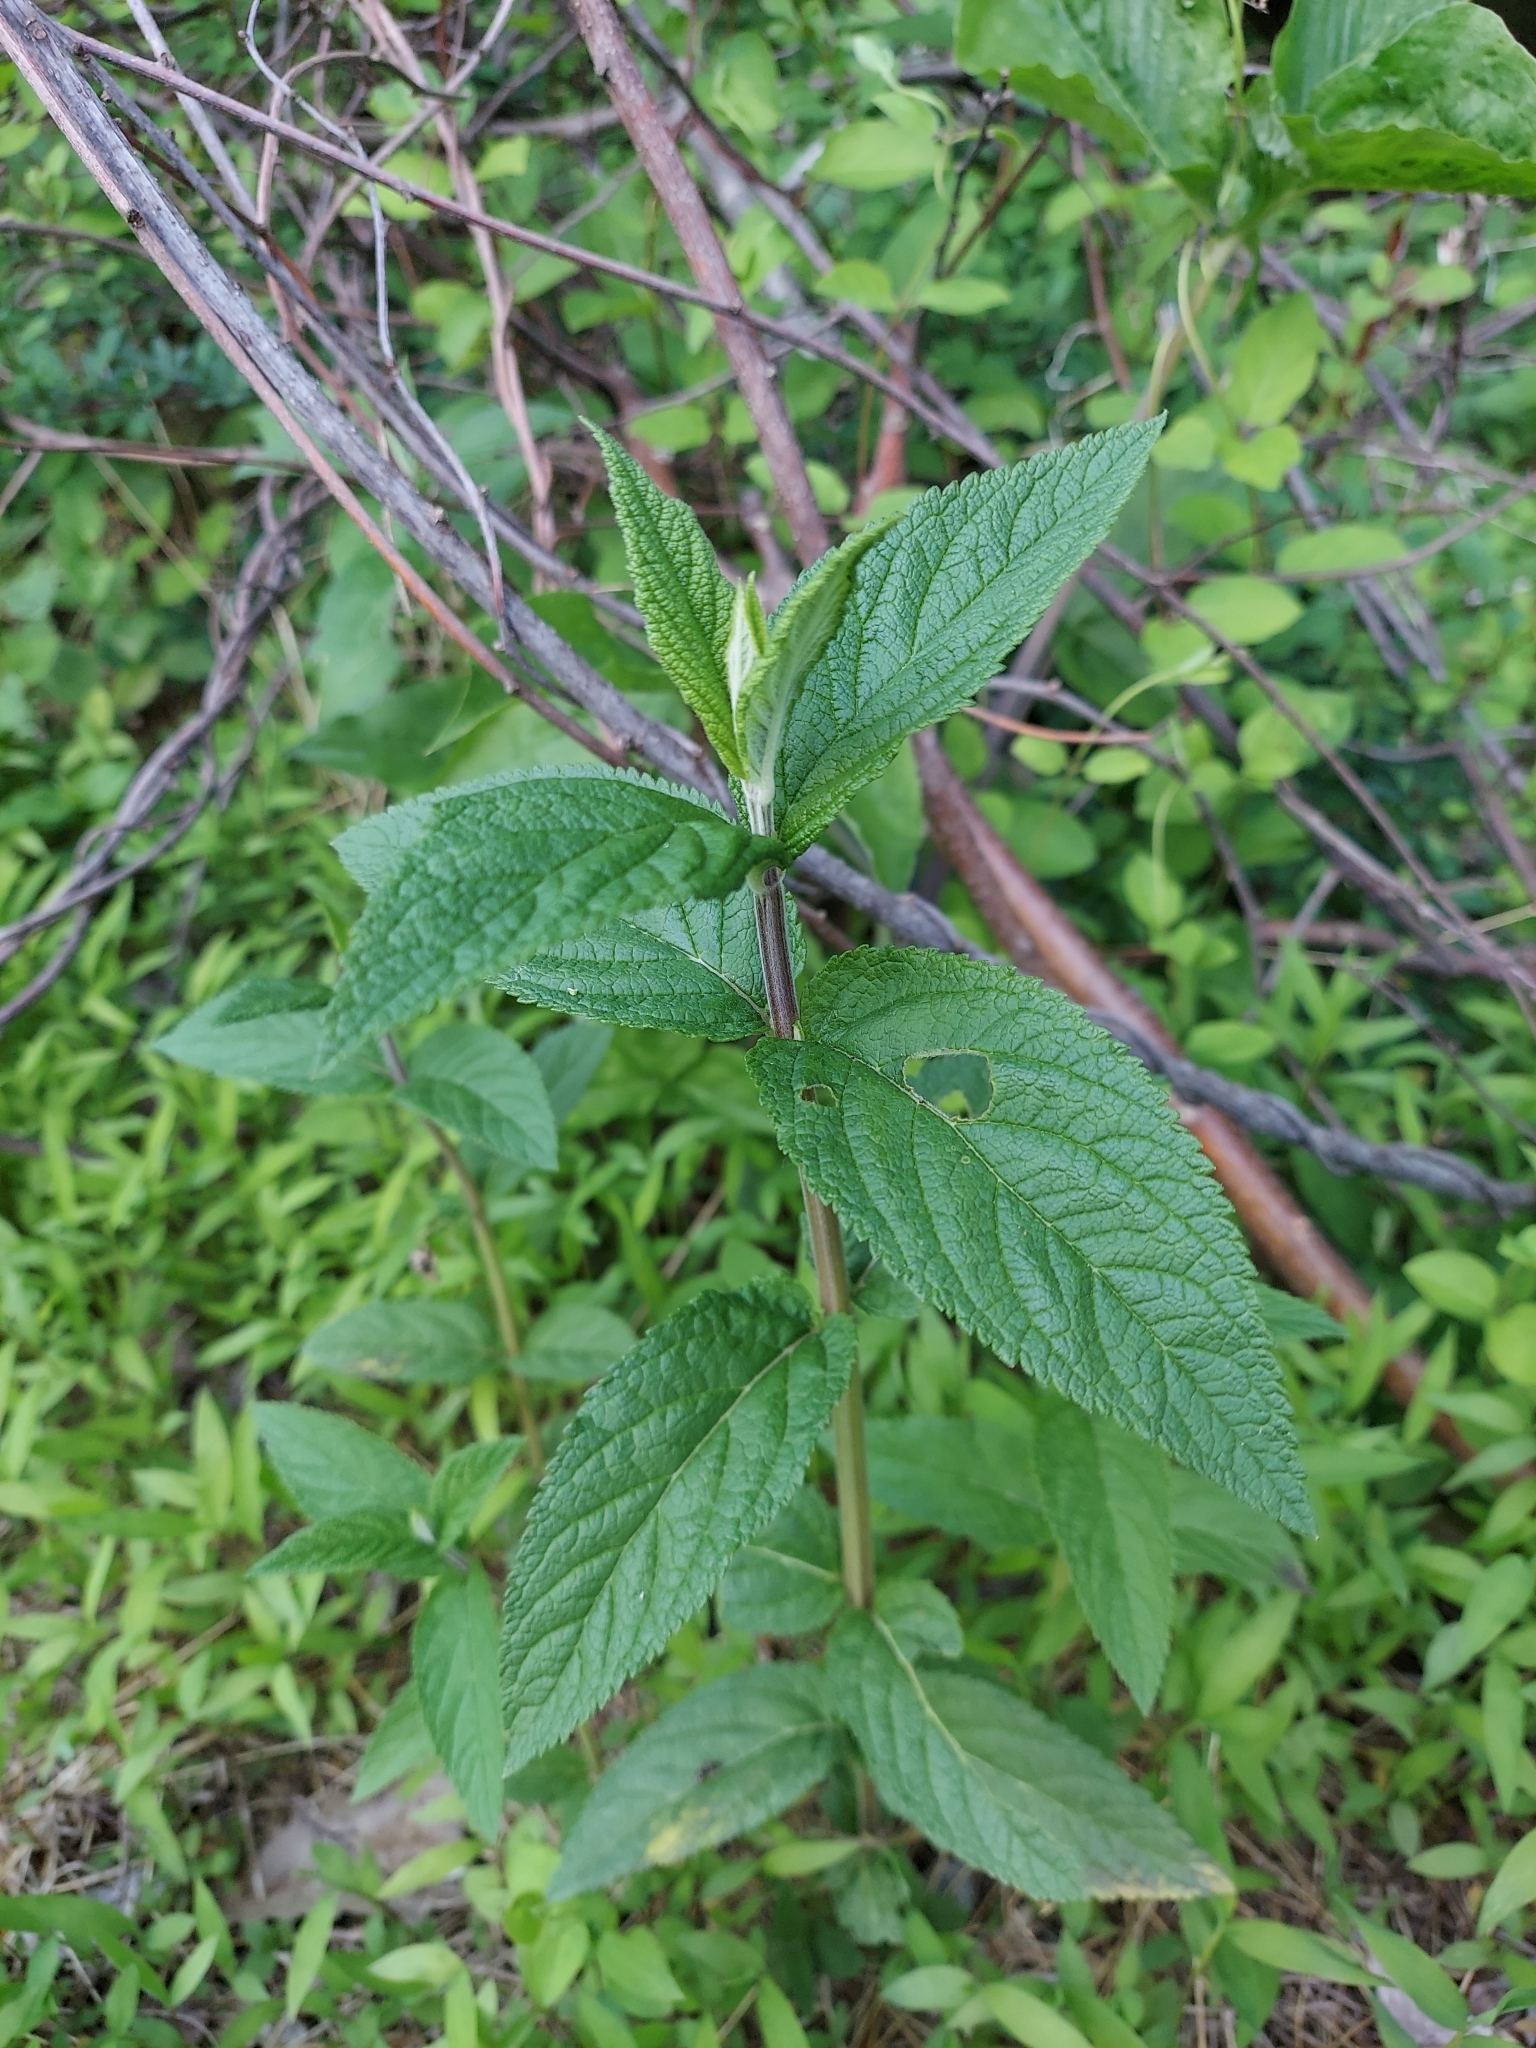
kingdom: Plantae
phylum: Tracheophyta
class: Magnoliopsida
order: Lamiales
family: Lamiaceae
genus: Teucrium
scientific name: Teucrium canadense
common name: American germander
